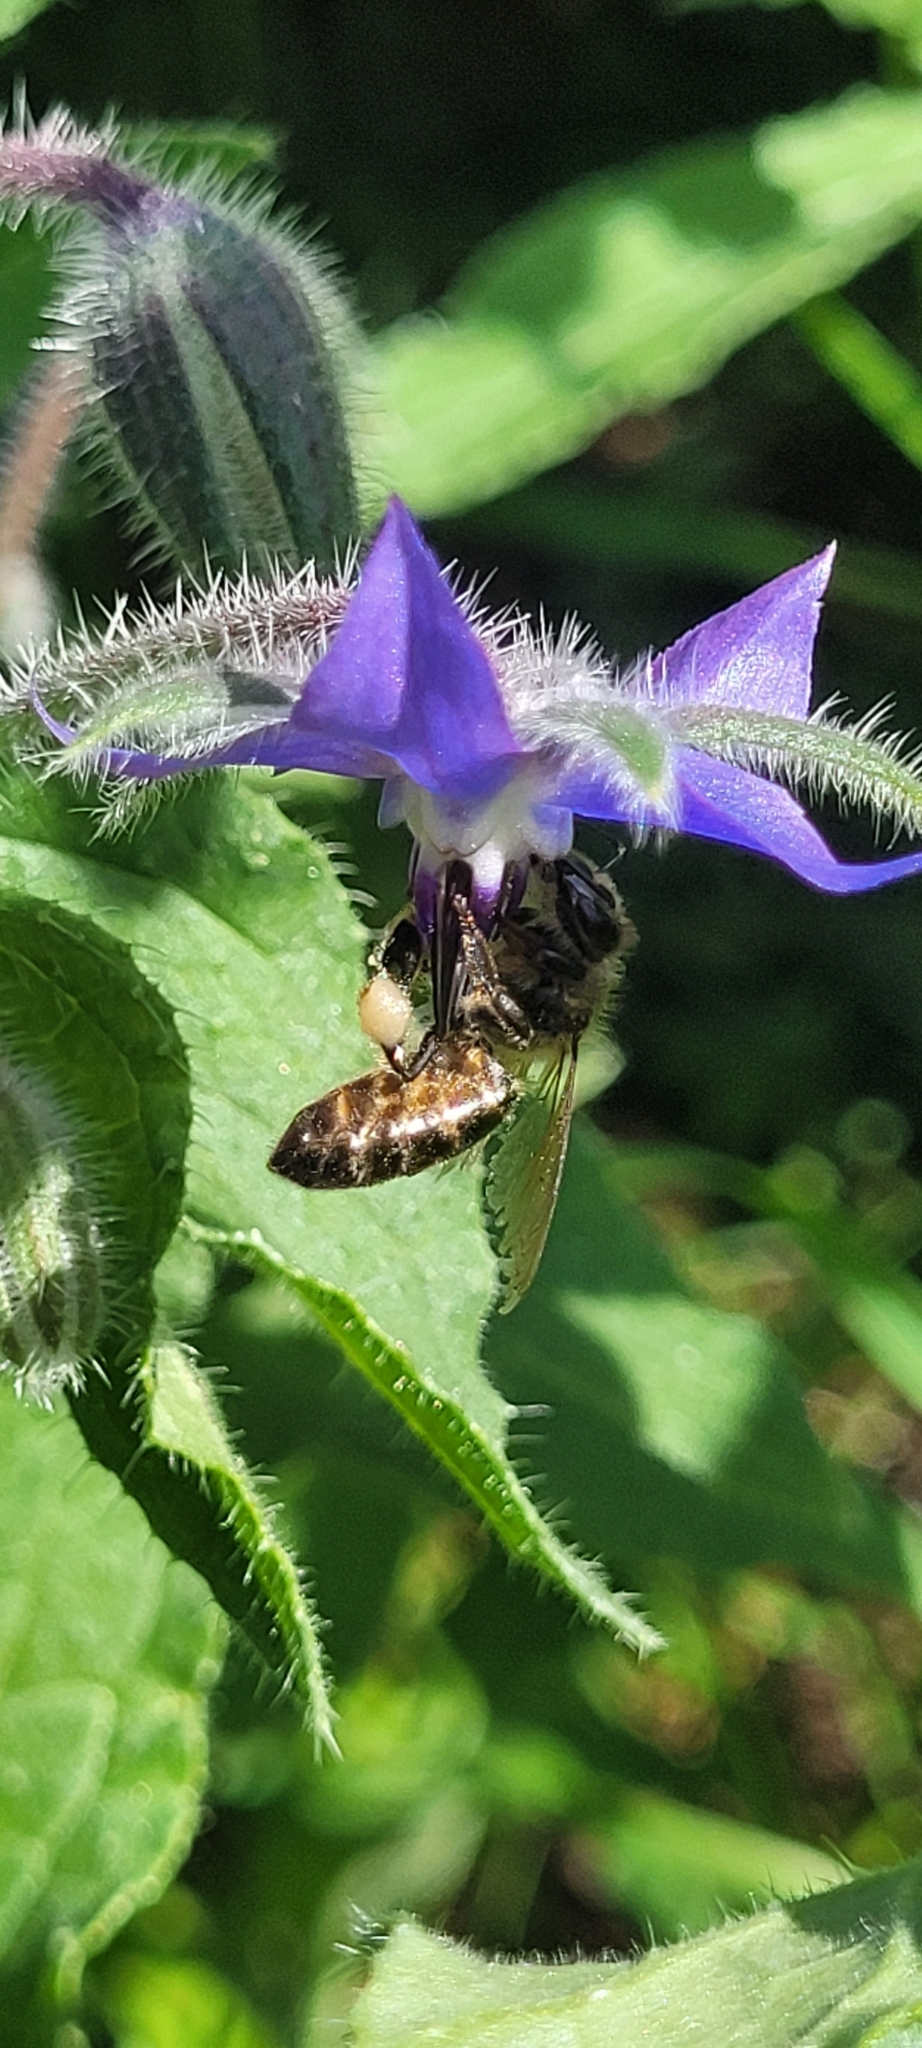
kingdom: Animalia
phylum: Arthropoda
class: Insecta
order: Hymenoptera
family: Apidae
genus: Apis
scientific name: Apis mellifera
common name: Honey bee
